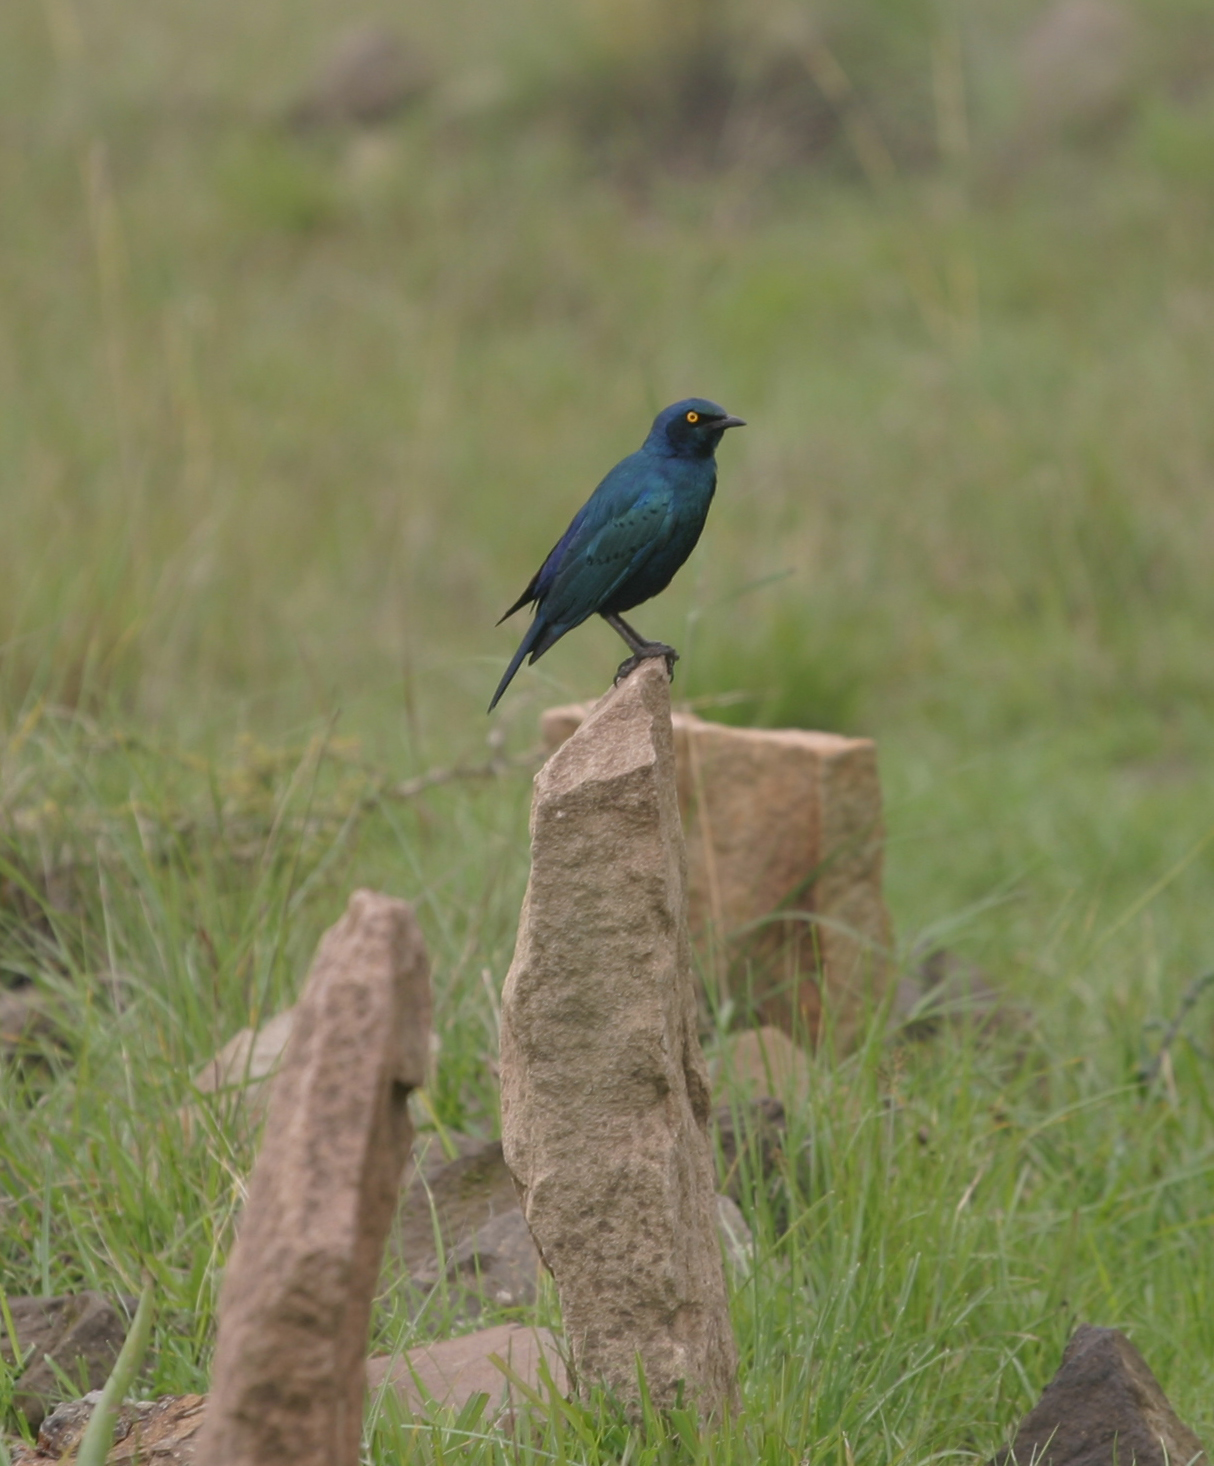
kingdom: Animalia
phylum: Chordata
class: Aves
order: Passeriformes
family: Sturnidae
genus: Lamprotornis
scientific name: Lamprotornis chalybaeus
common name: Greater blue-eared starling
